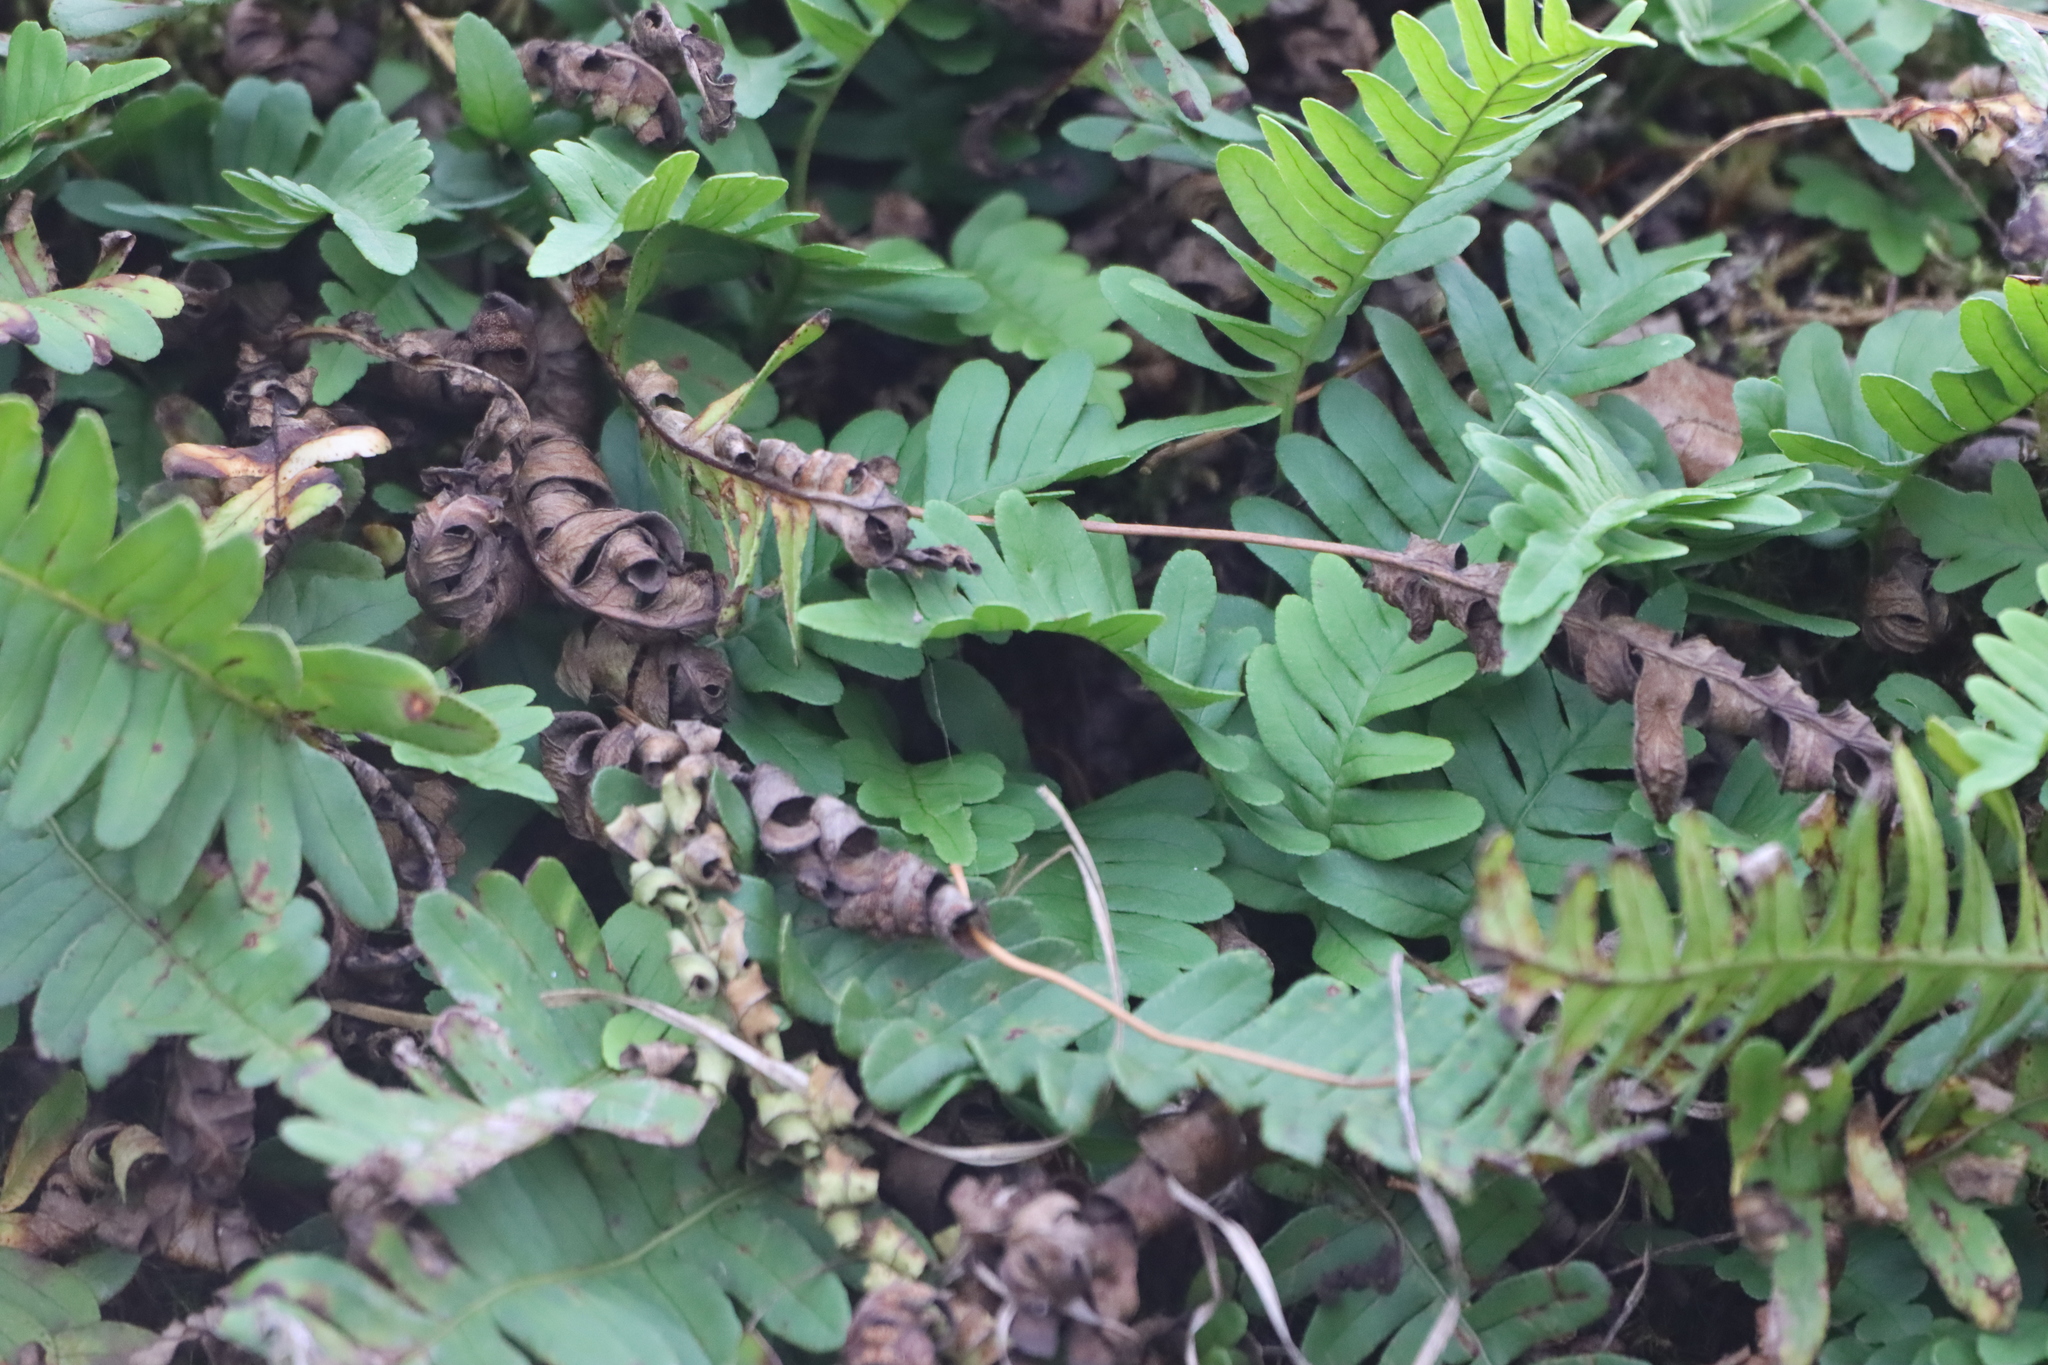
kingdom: Plantae
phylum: Tracheophyta
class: Polypodiopsida
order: Polypodiales
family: Polypodiaceae
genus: Polypodium
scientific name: Polypodium virginianum
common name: American wall fern
